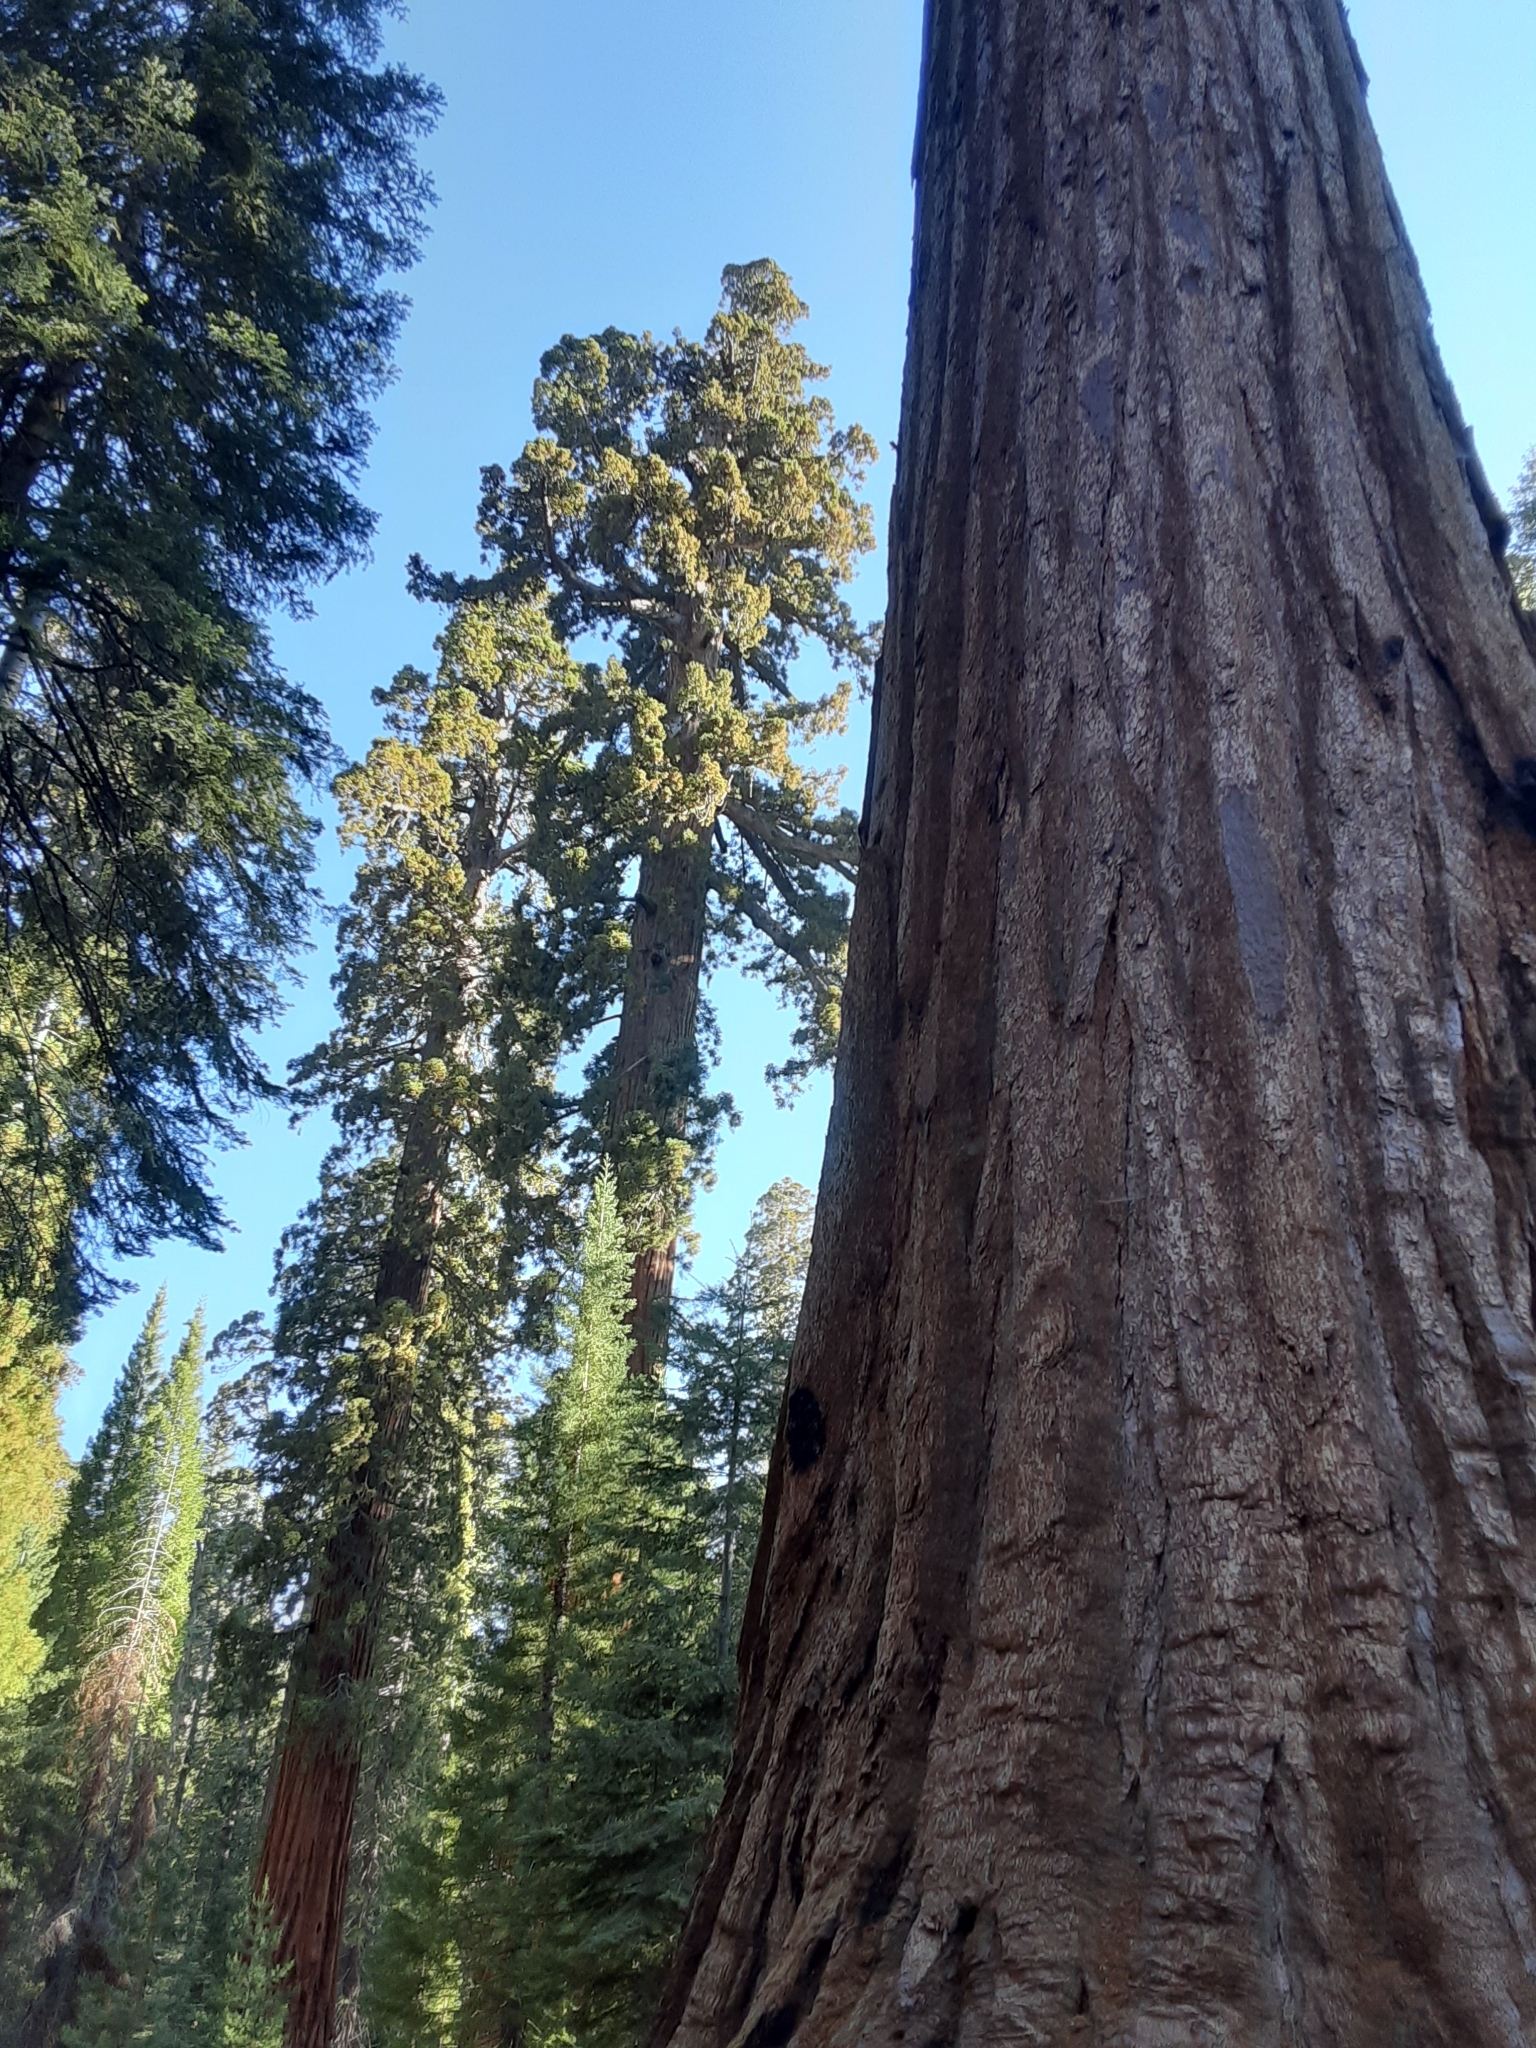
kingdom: Plantae
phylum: Tracheophyta
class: Pinopsida
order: Pinales
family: Cupressaceae
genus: Sequoiadendron
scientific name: Sequoiadendron giganteum
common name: Wellingtonia
